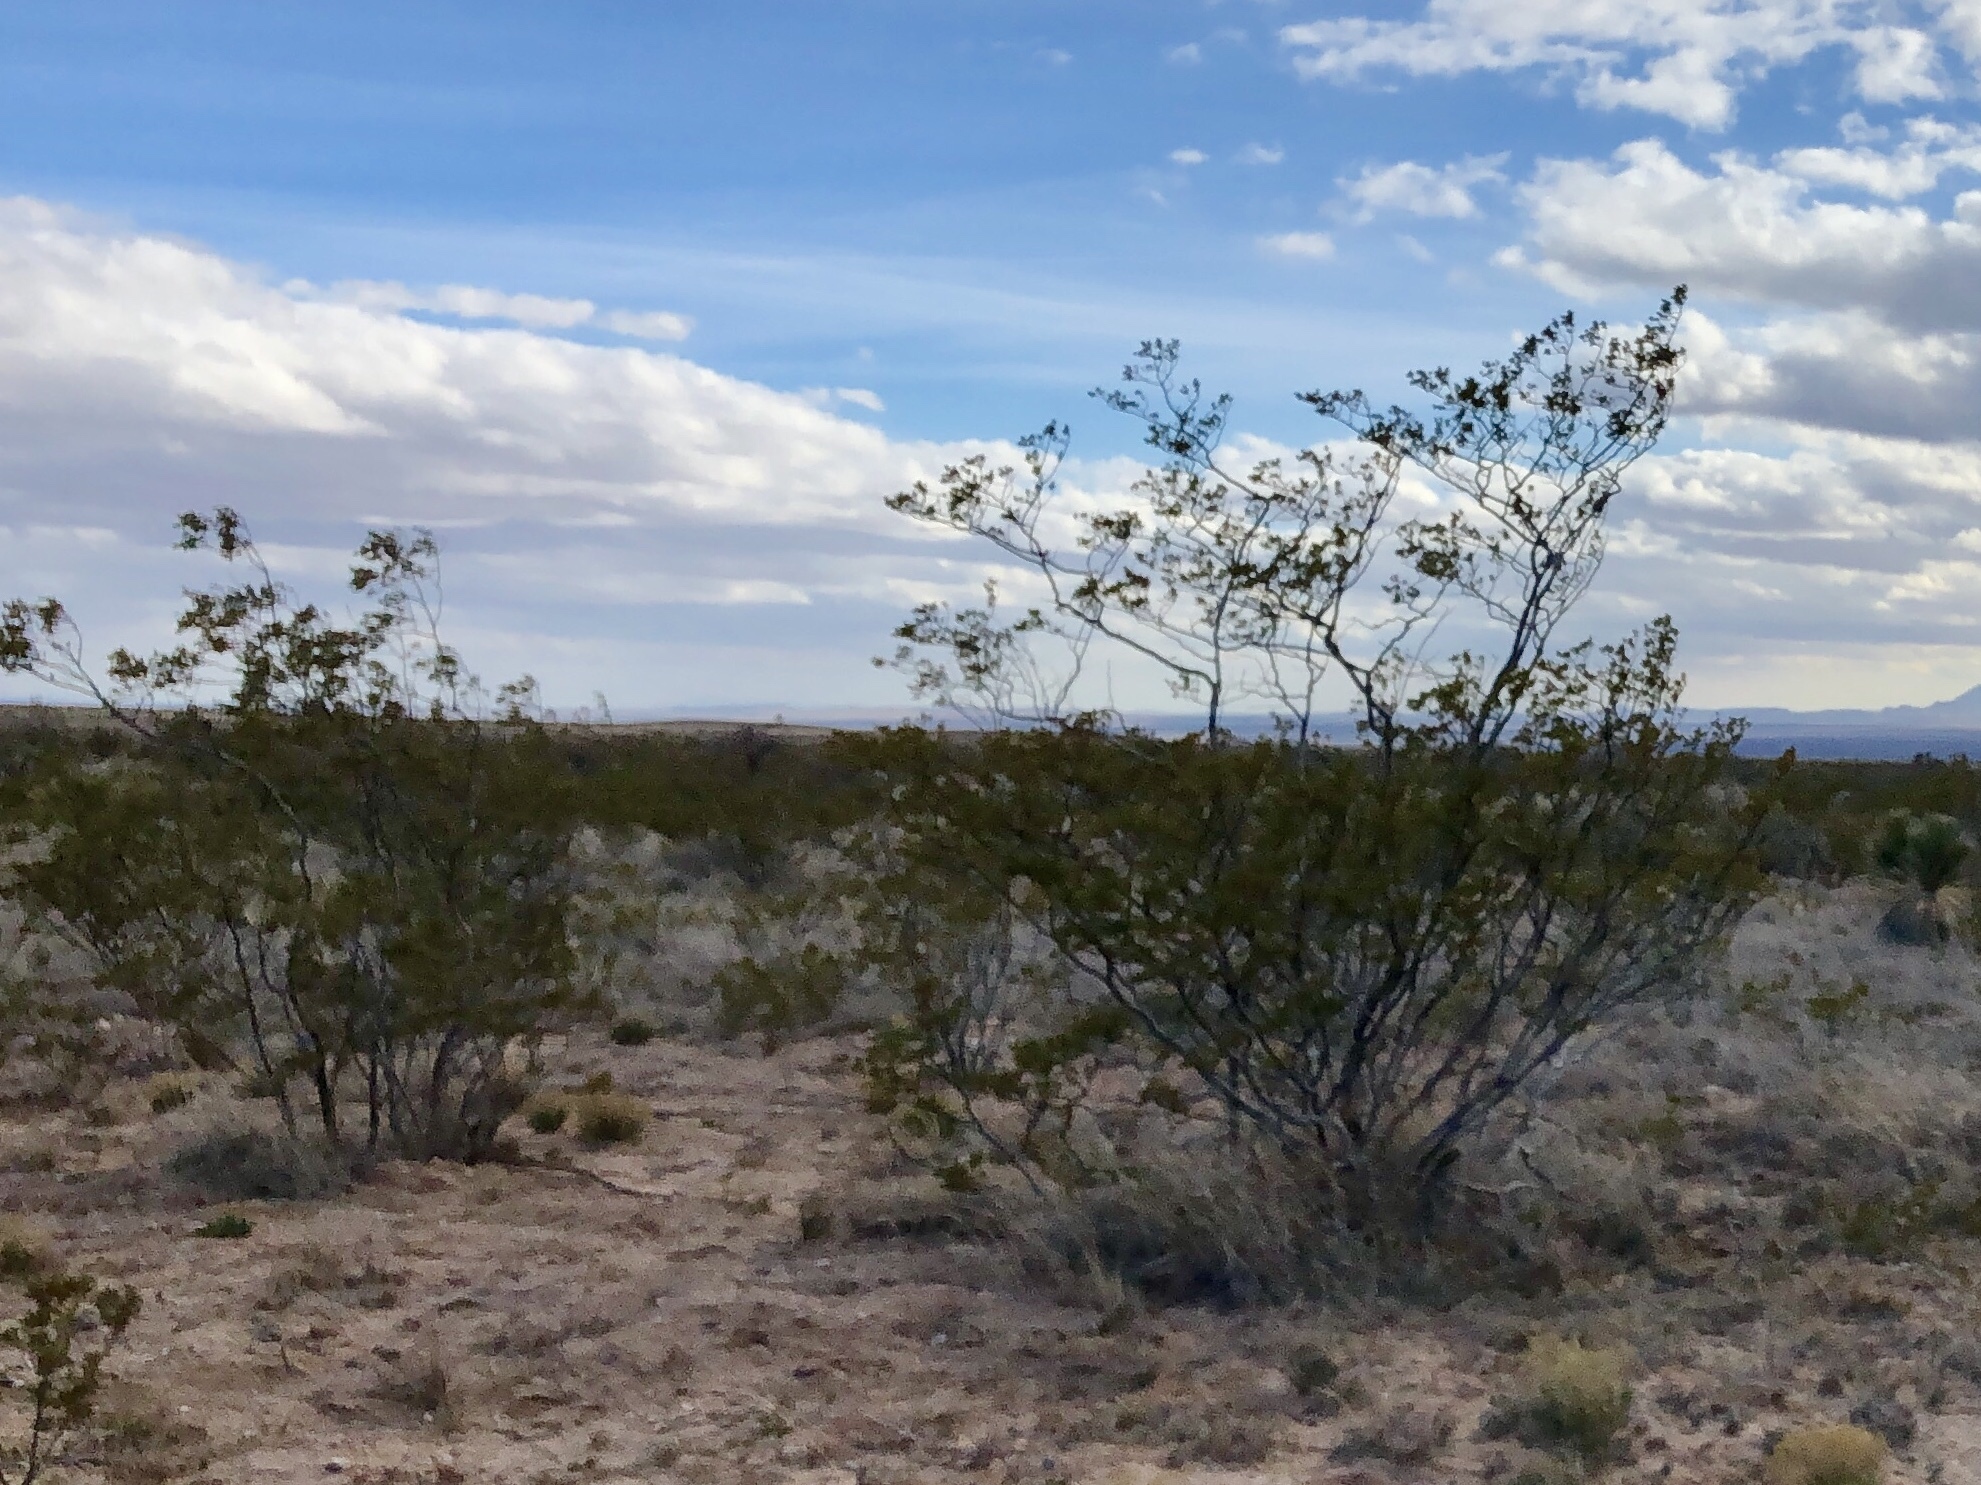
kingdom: Plantae
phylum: Tracheophyta
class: Magnoliopsida
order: Zygophyllales
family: Zygophyllaceae
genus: Larrea
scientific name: Larrea tridentata
